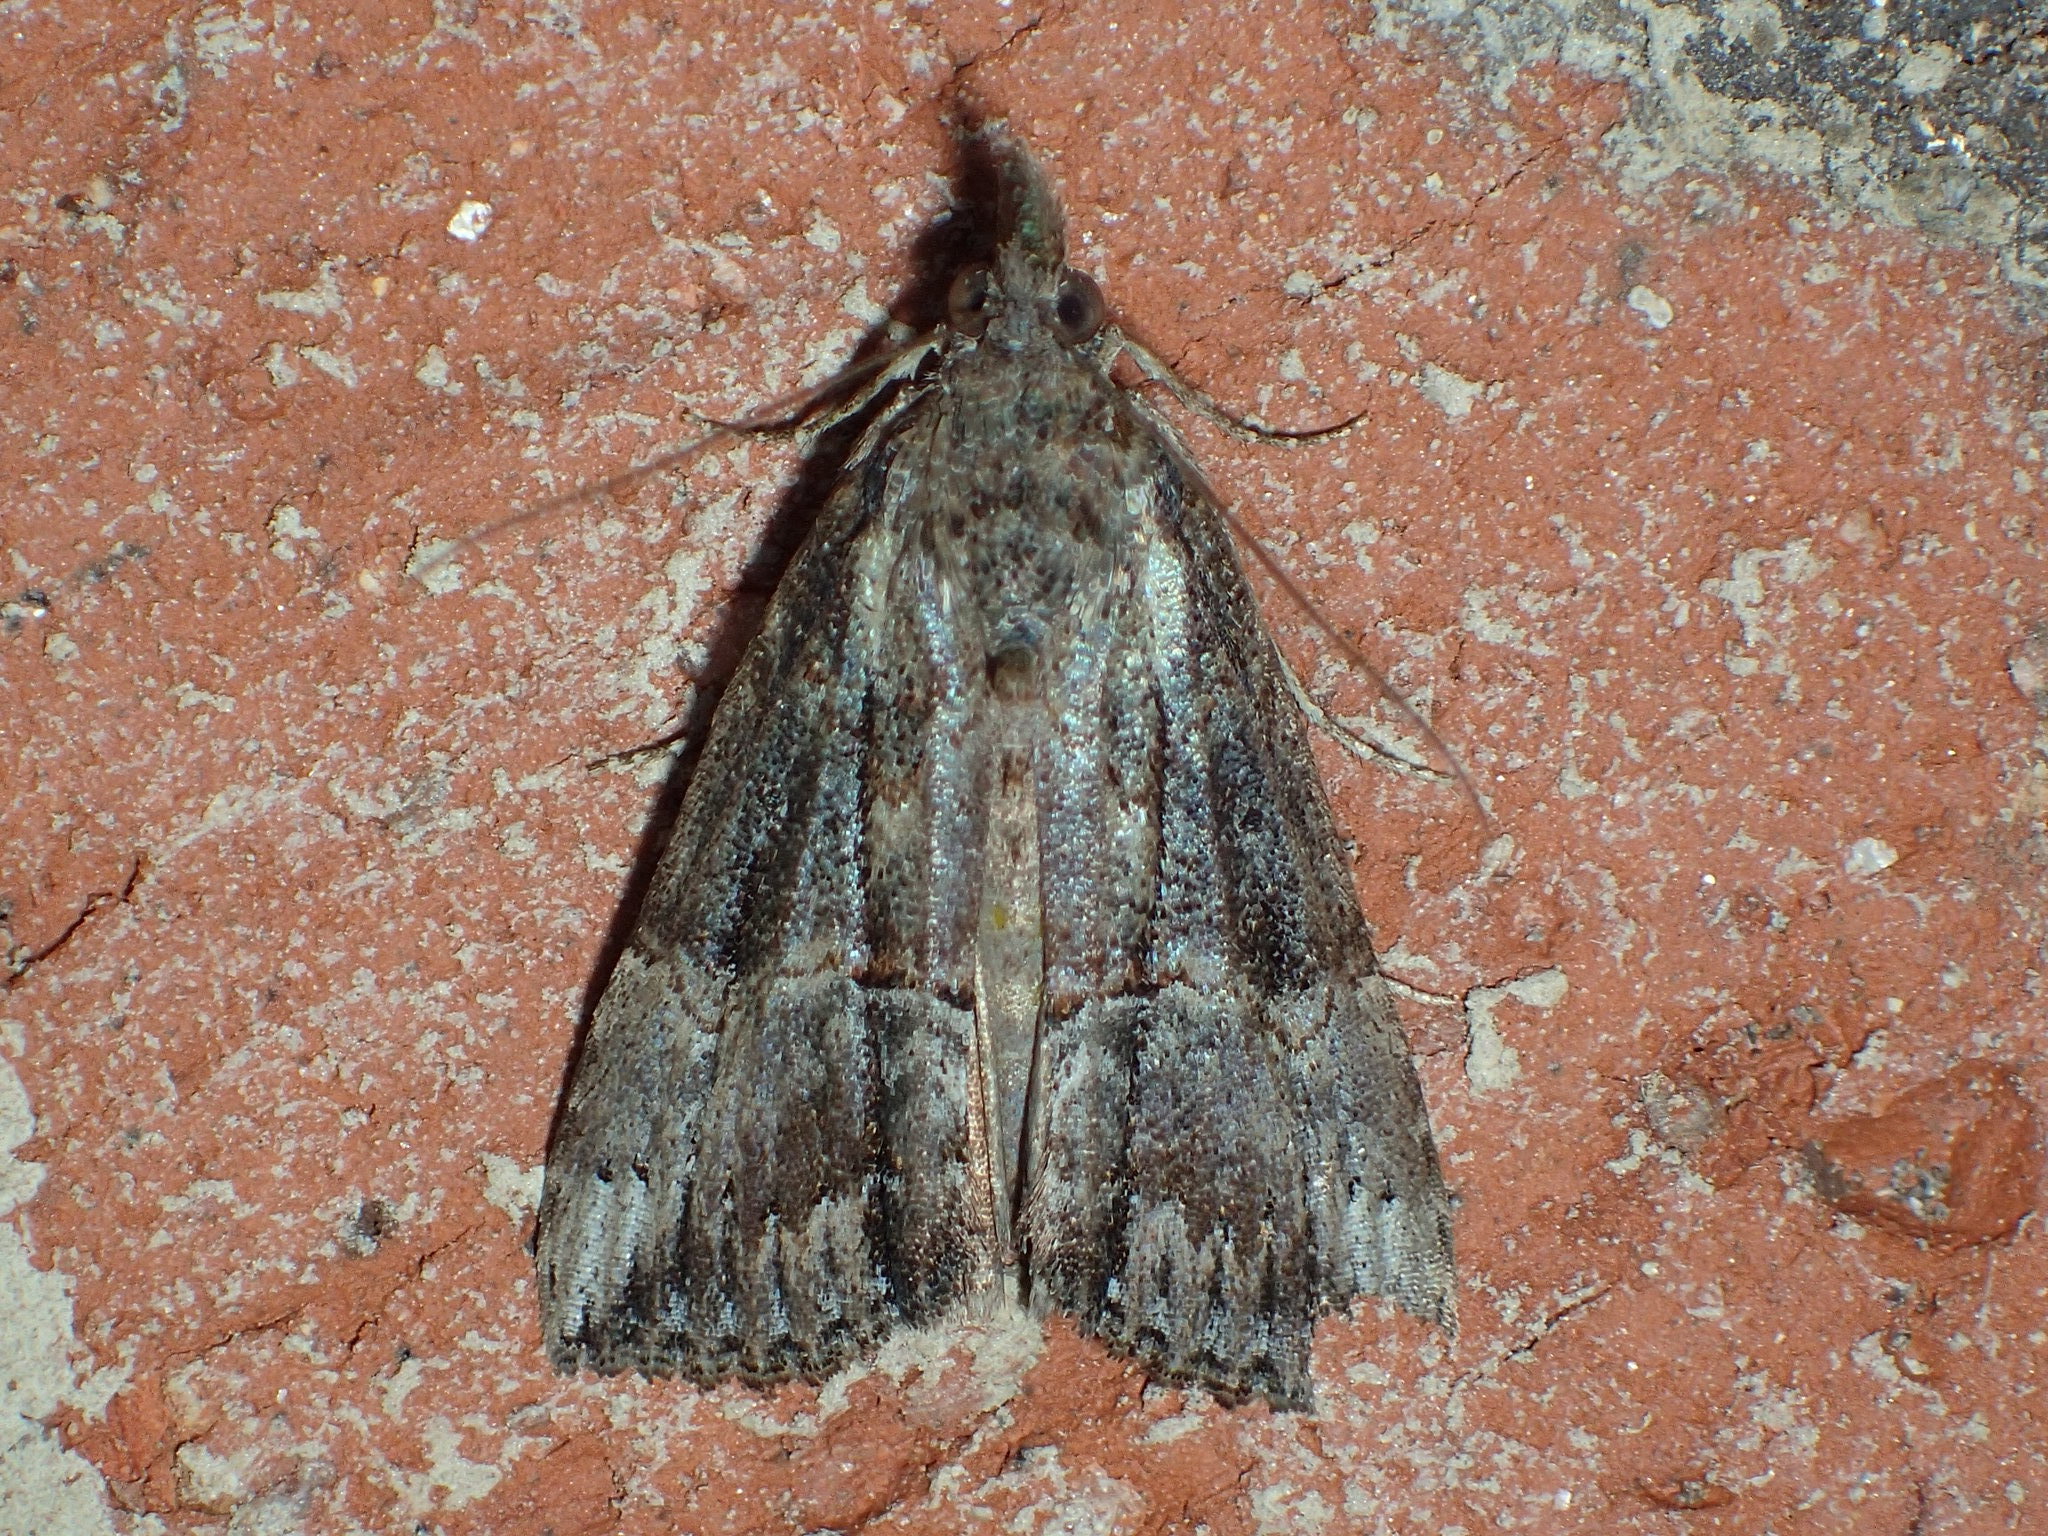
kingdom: Animalia
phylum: Arthropoda
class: Insecta
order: Lepidoptera
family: Erebidae
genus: Hypena
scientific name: Hypena scabra
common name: Green cloverworm
